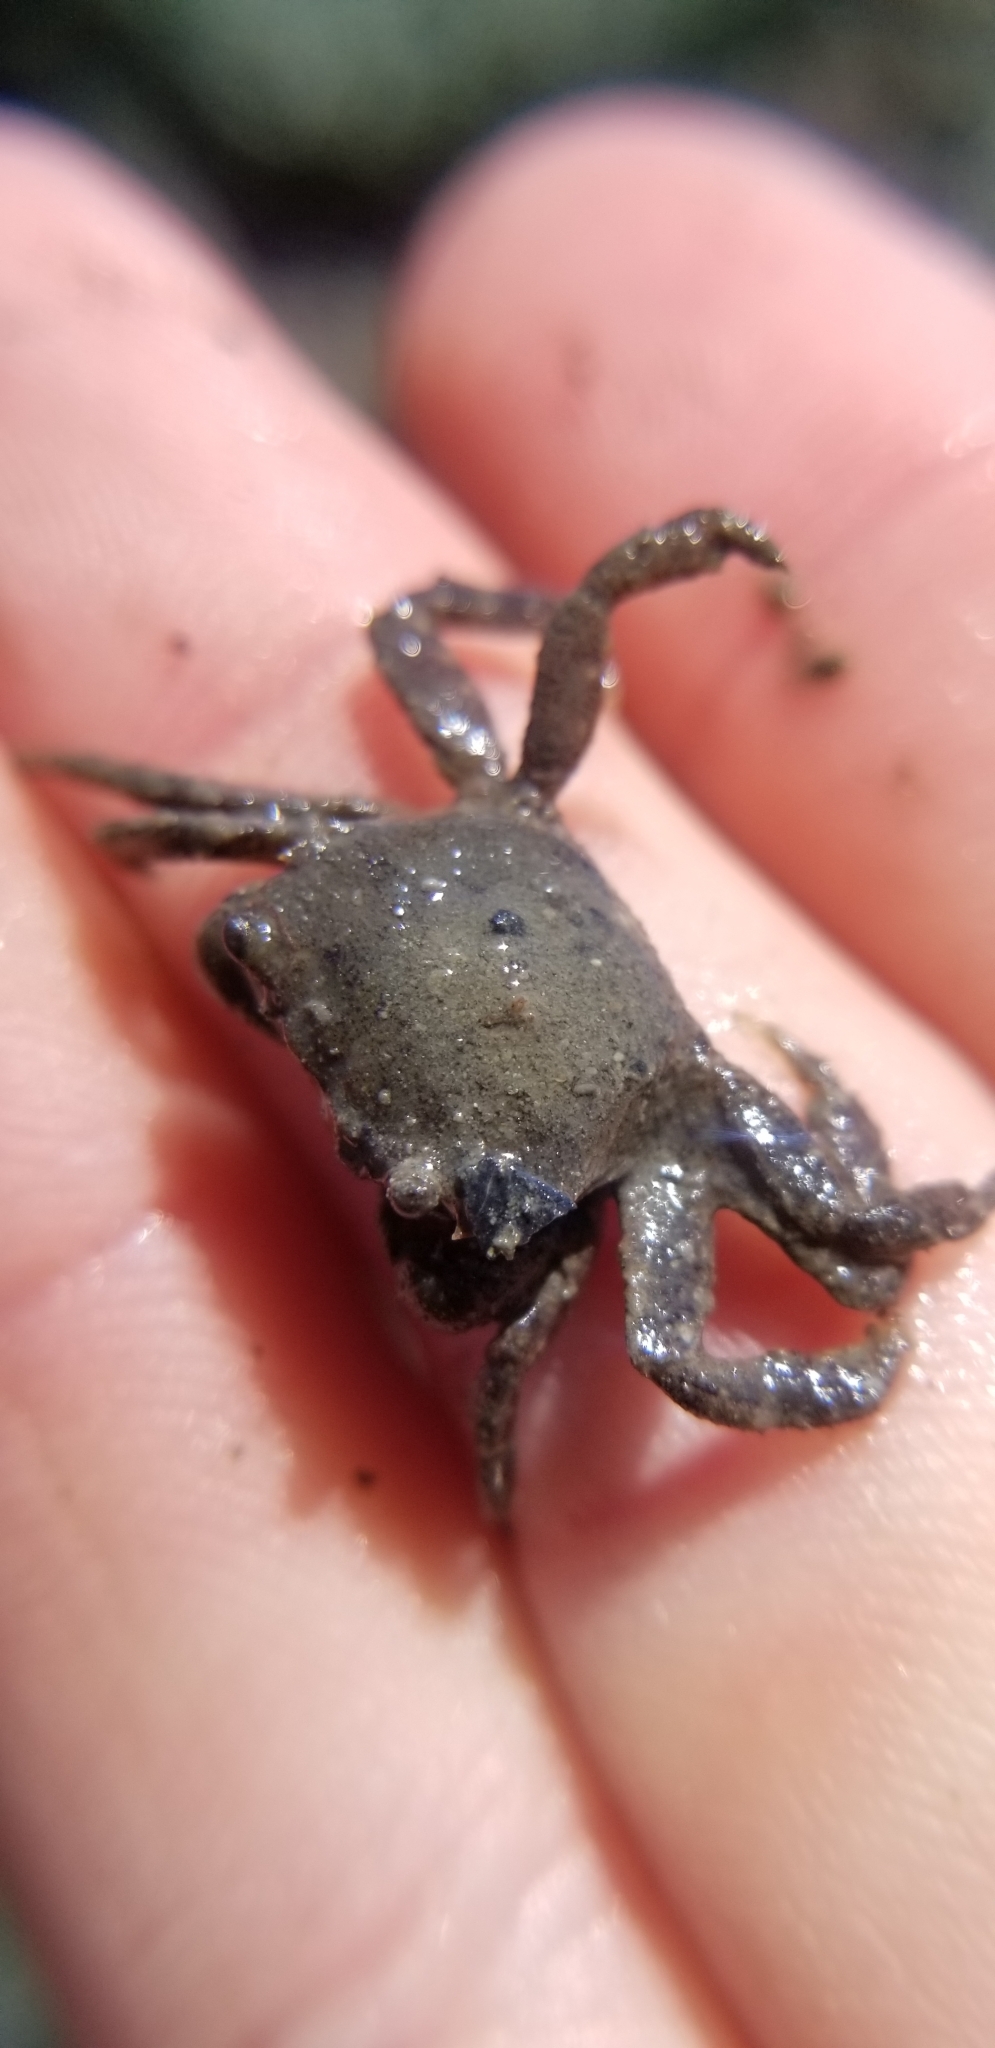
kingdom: Animalia
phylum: Arthropoda
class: Malacostraca
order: Decapoda
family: Varunidae
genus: Hemigrapsus
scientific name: Hemigrapsus oregonensis
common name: Yellow shore crab
